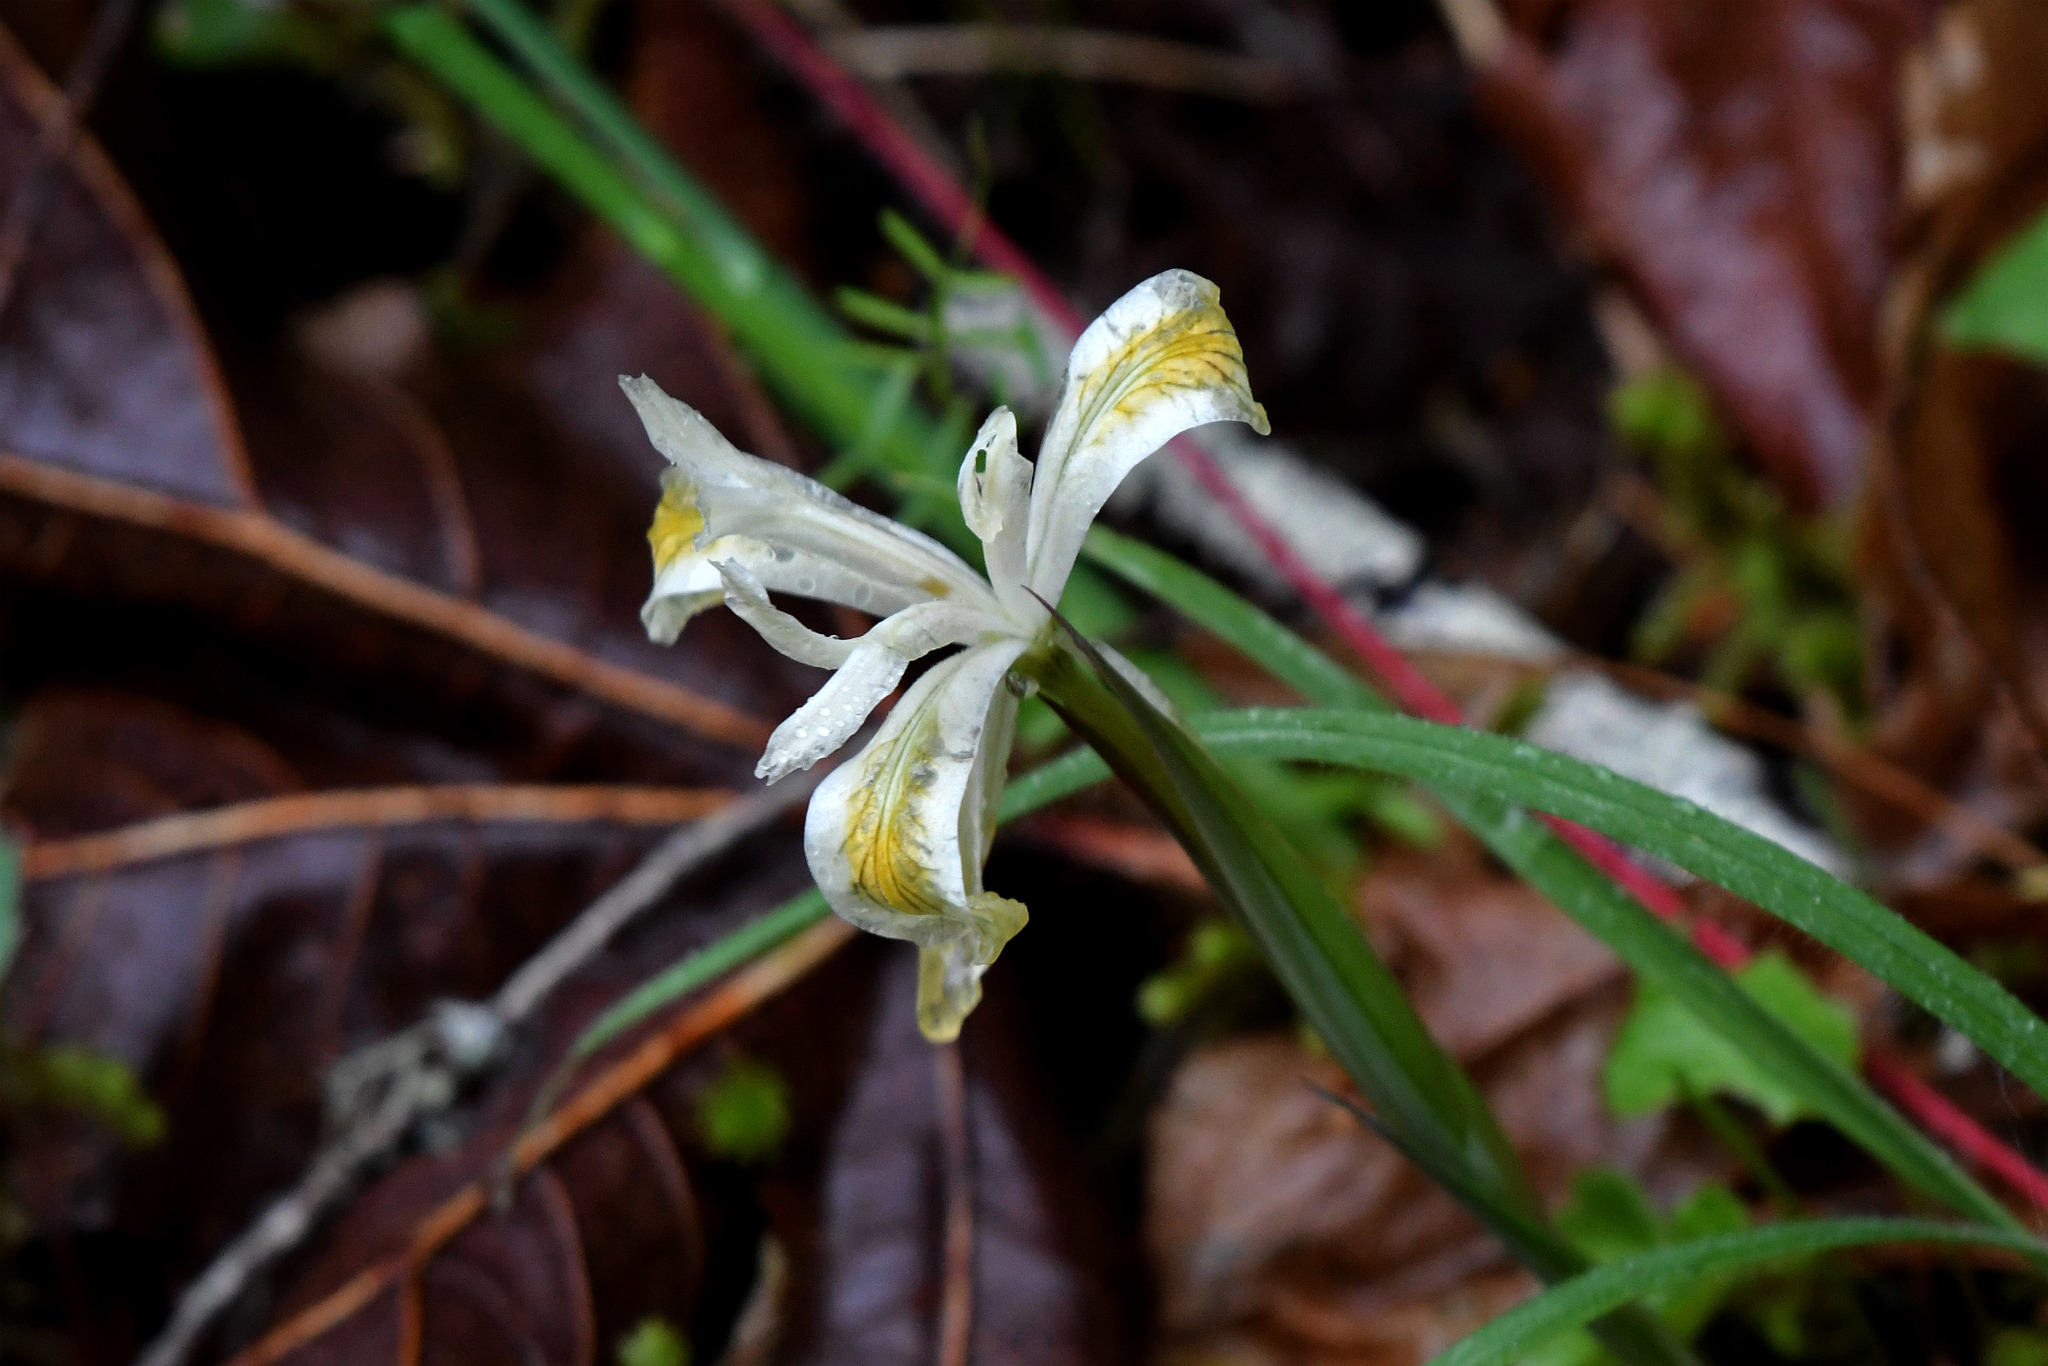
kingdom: Plantae
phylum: Tracheophyta
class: Liliopsida
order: Asparagales
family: Iridaceae
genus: Iris
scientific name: Iris chrysophylla
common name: Yellow-leaf iris
